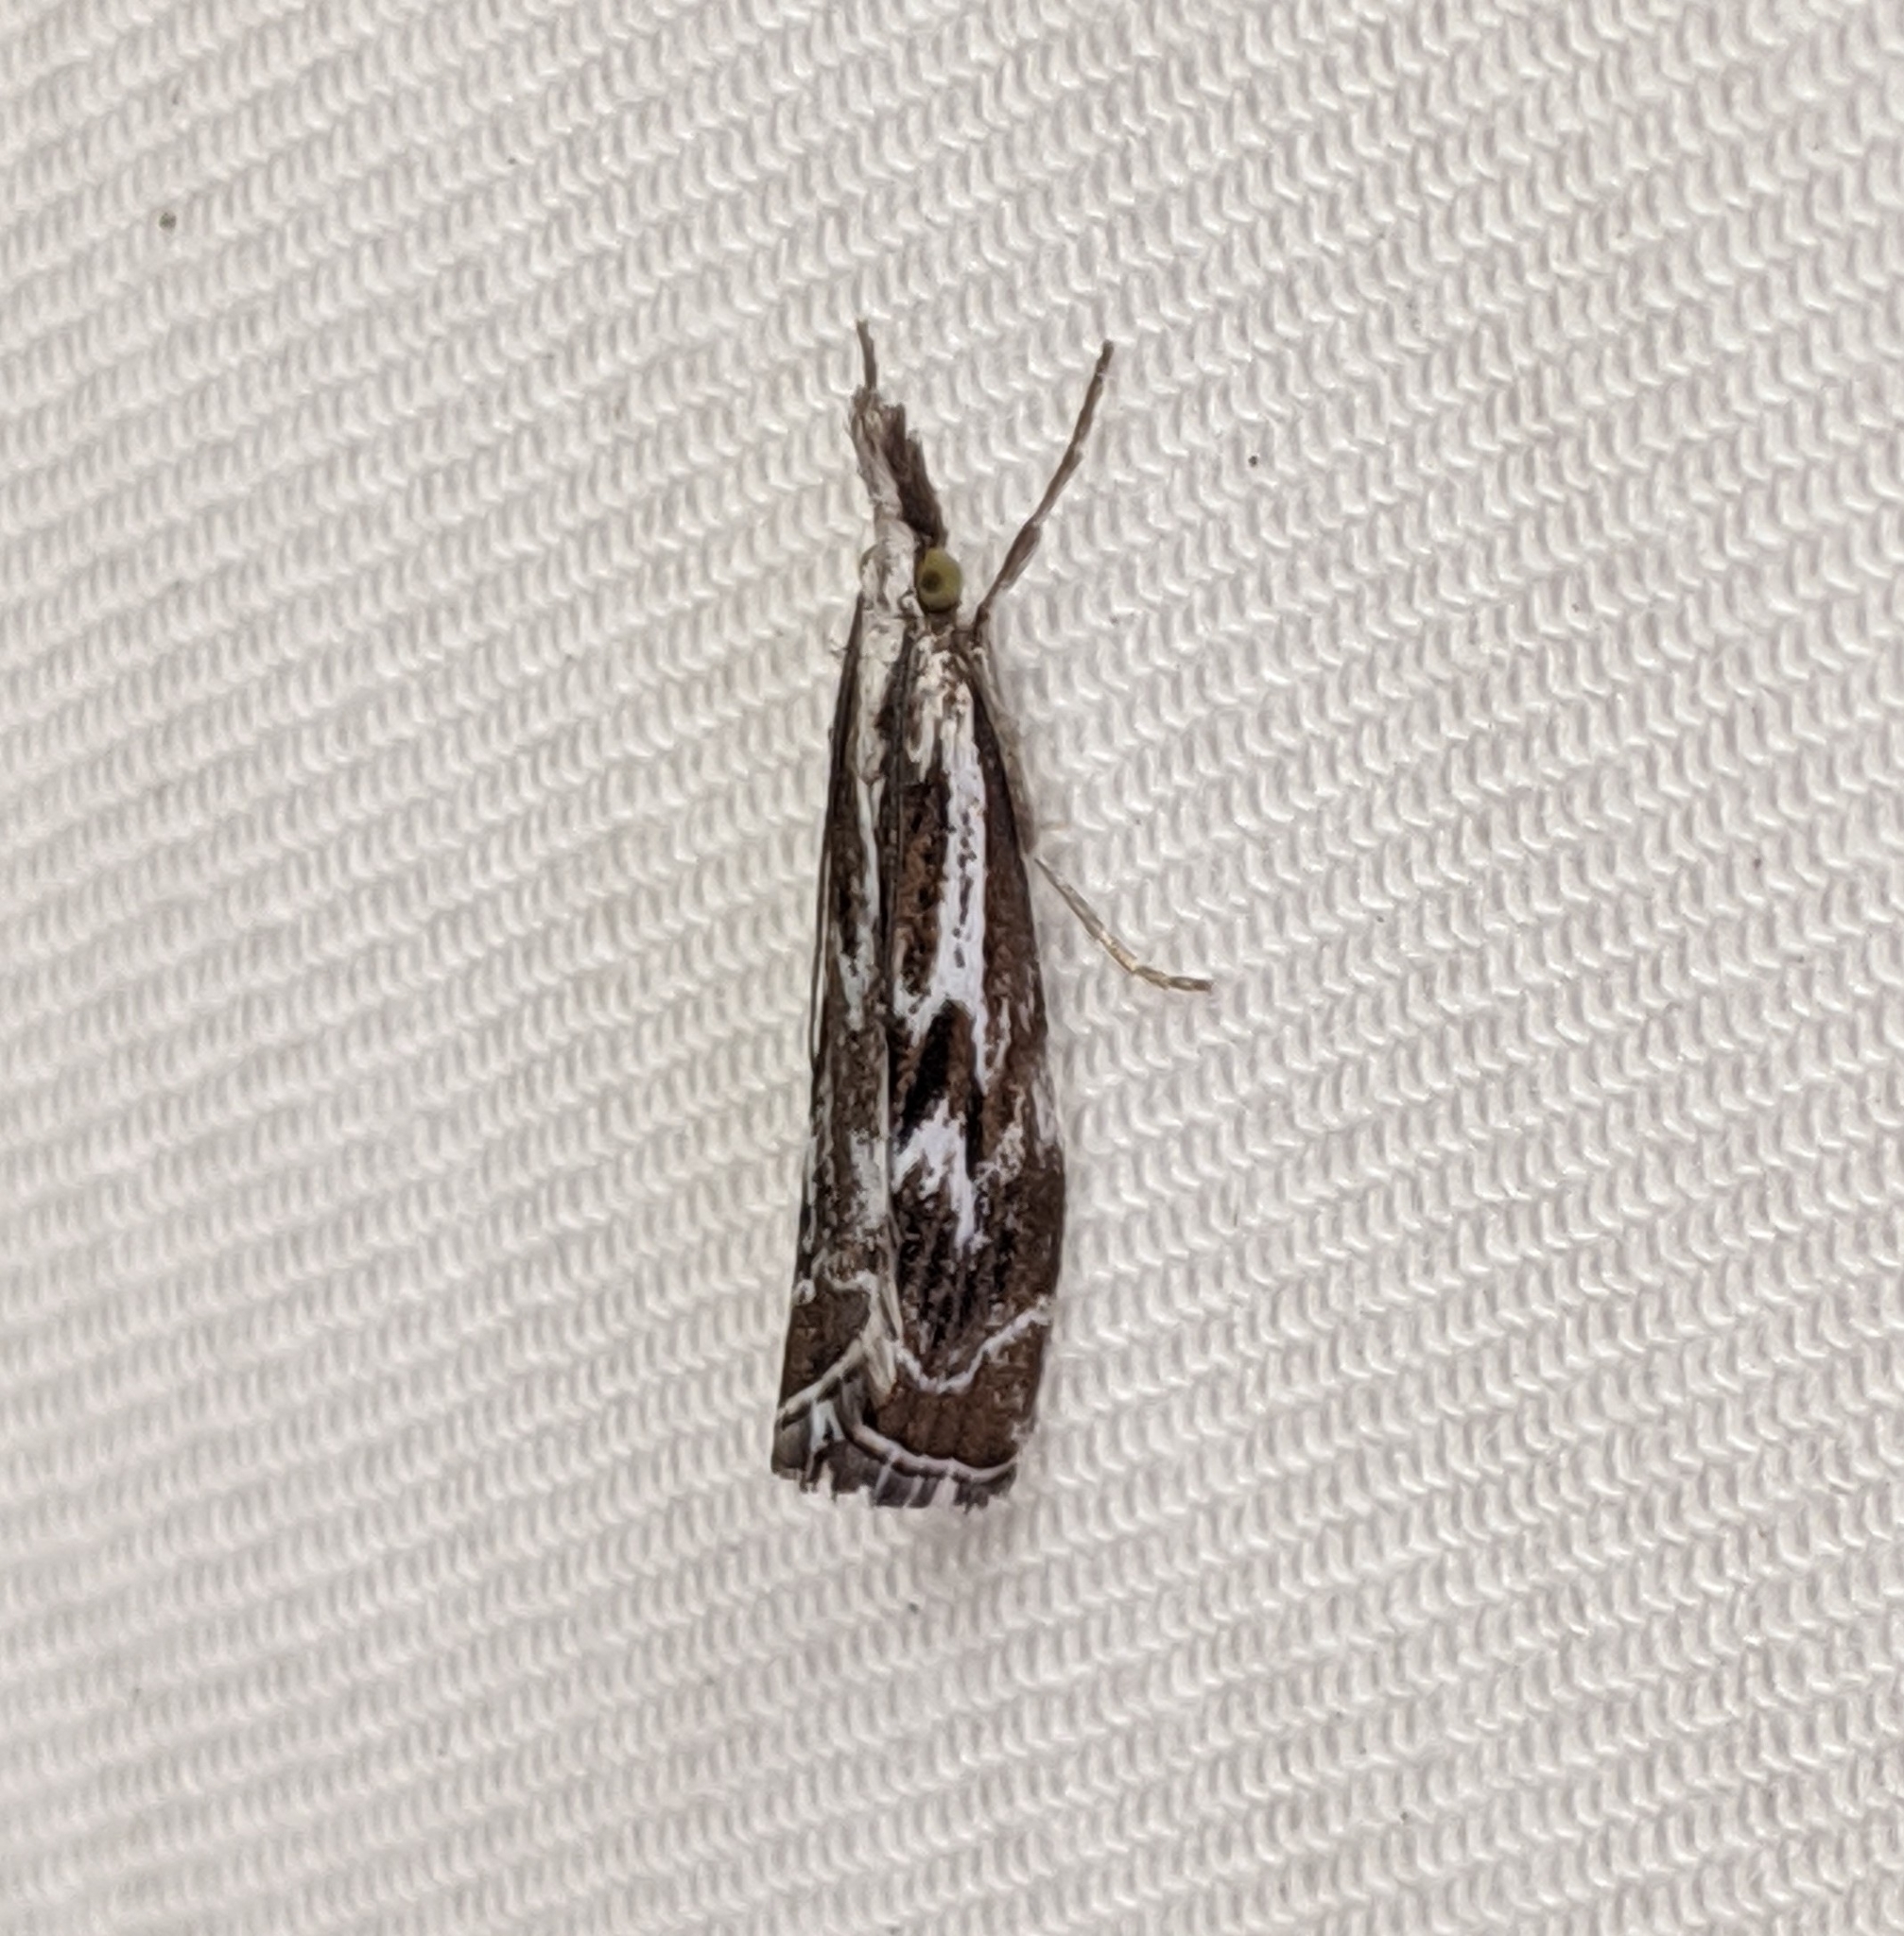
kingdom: Animalia
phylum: Arthropoda
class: Insecta
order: Lepidoptera
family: Crambidae
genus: Catoptria
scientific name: Catoptria oregonicus
